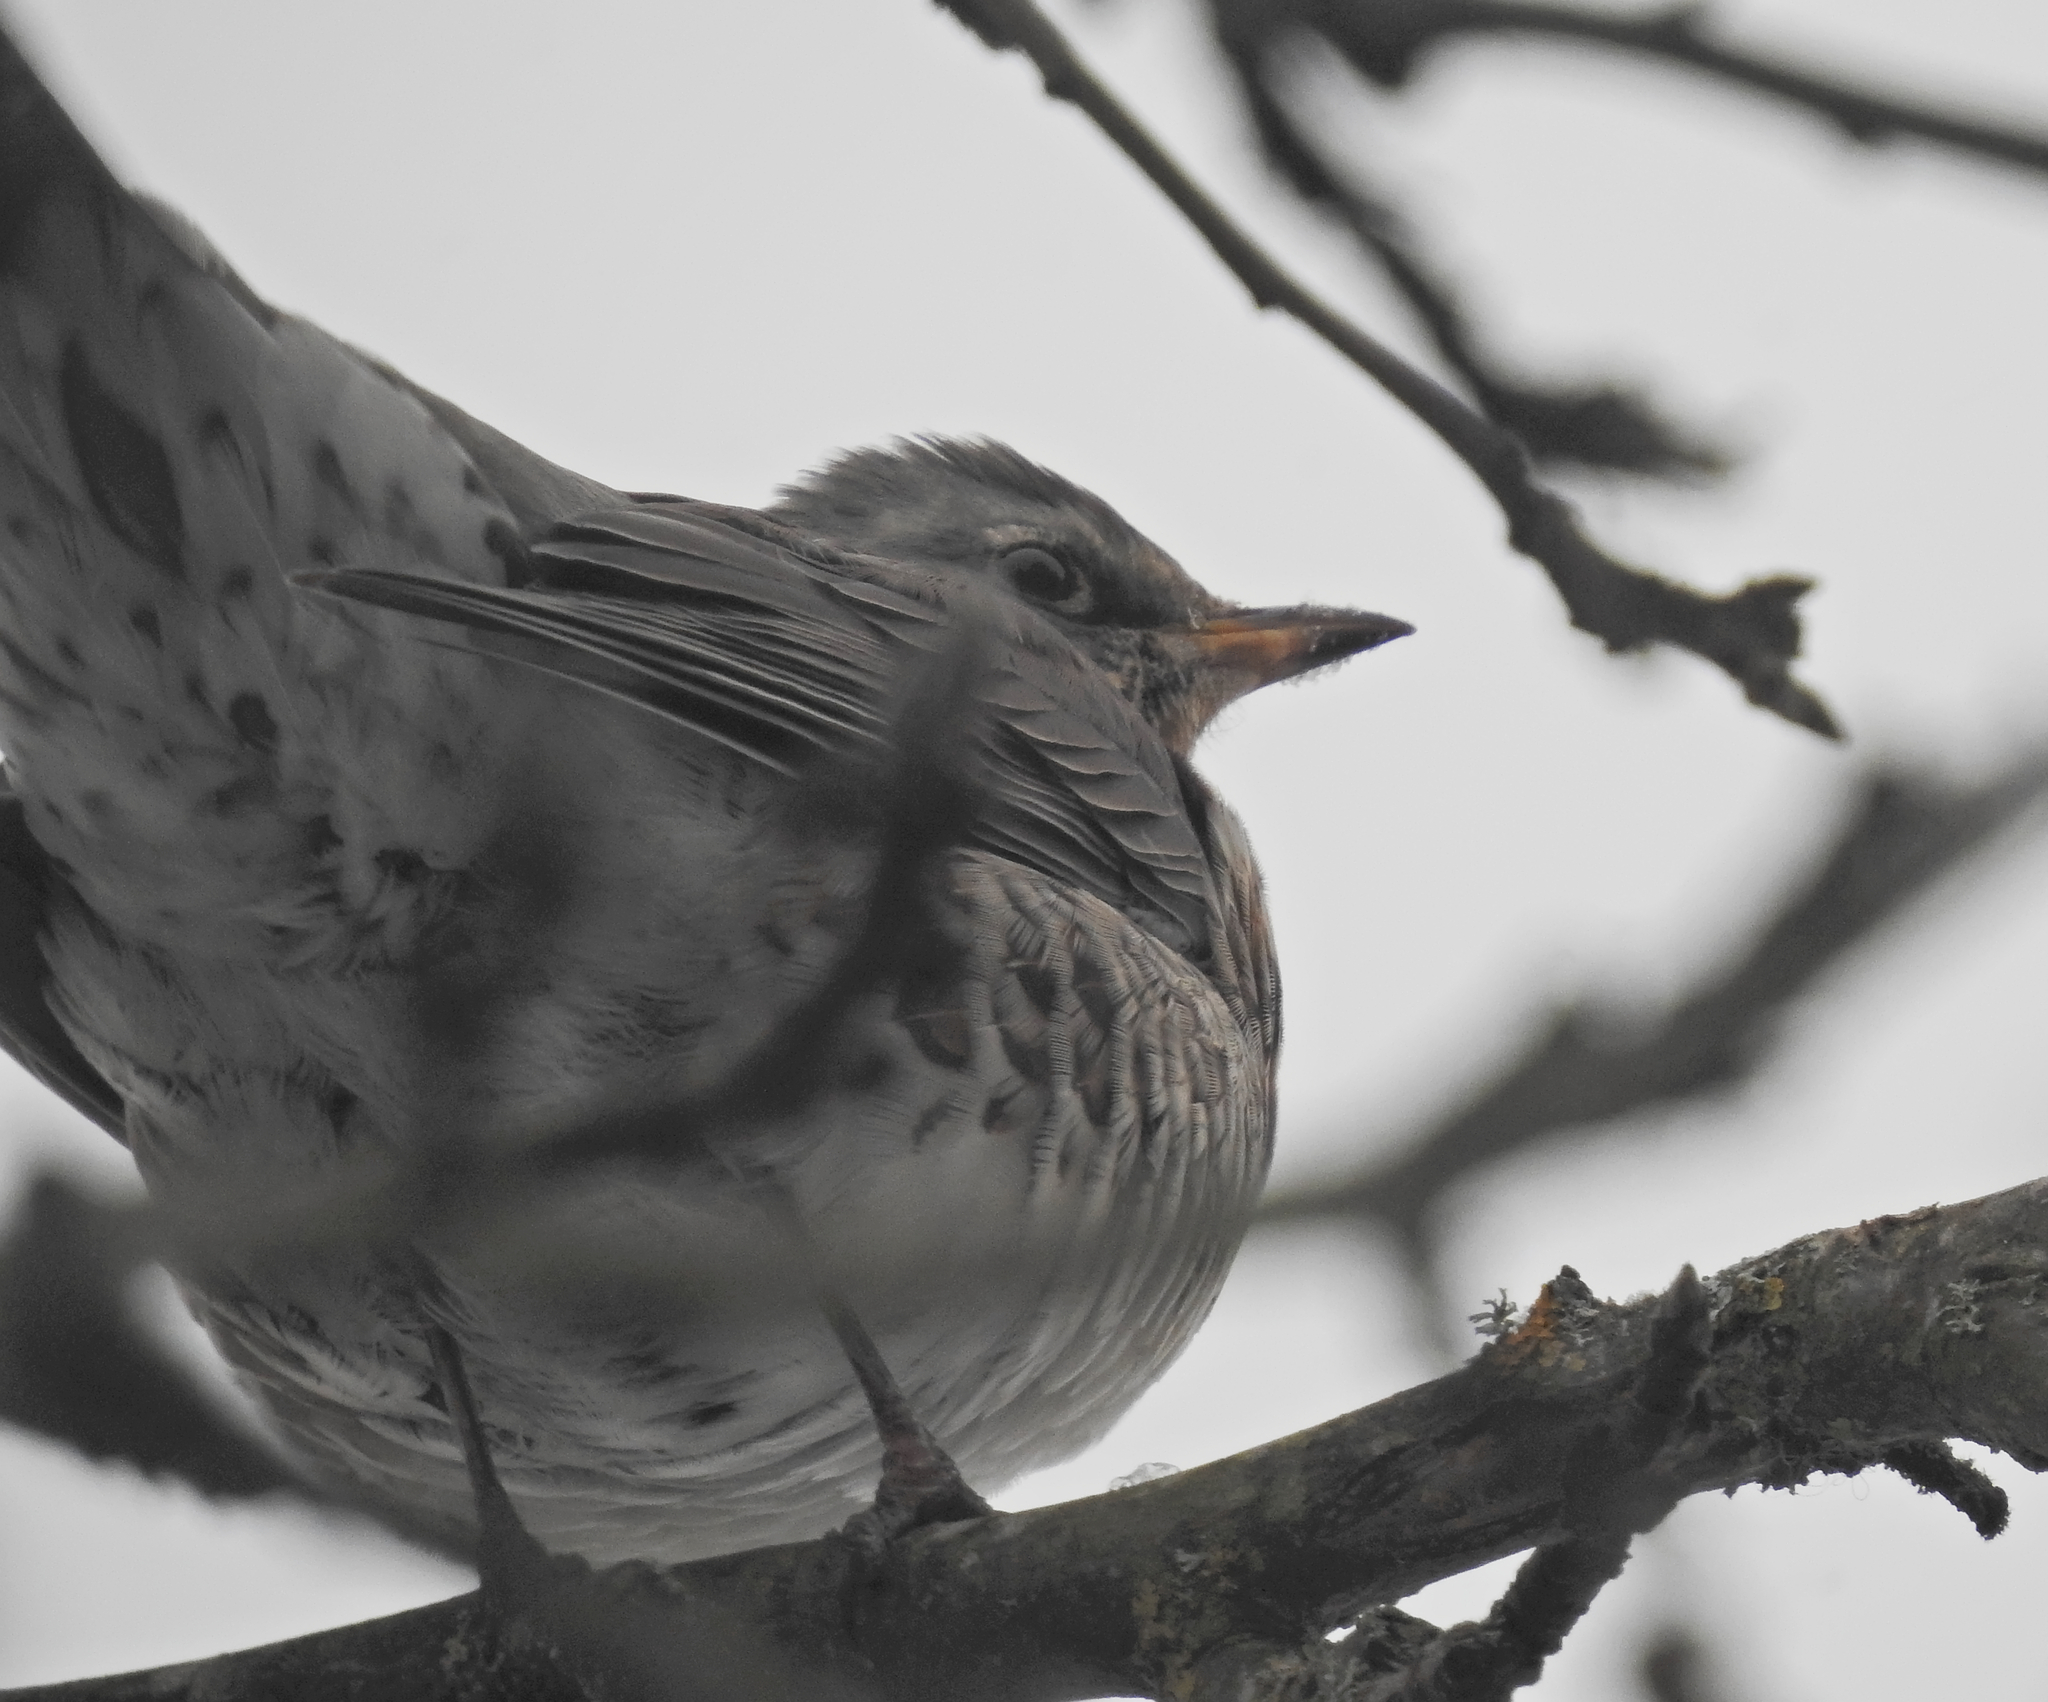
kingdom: Animalia
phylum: Chordata
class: Aves
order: Passeriformes
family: Turdidae
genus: Turdus
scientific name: Turdus pilaris
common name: Fieldfare
